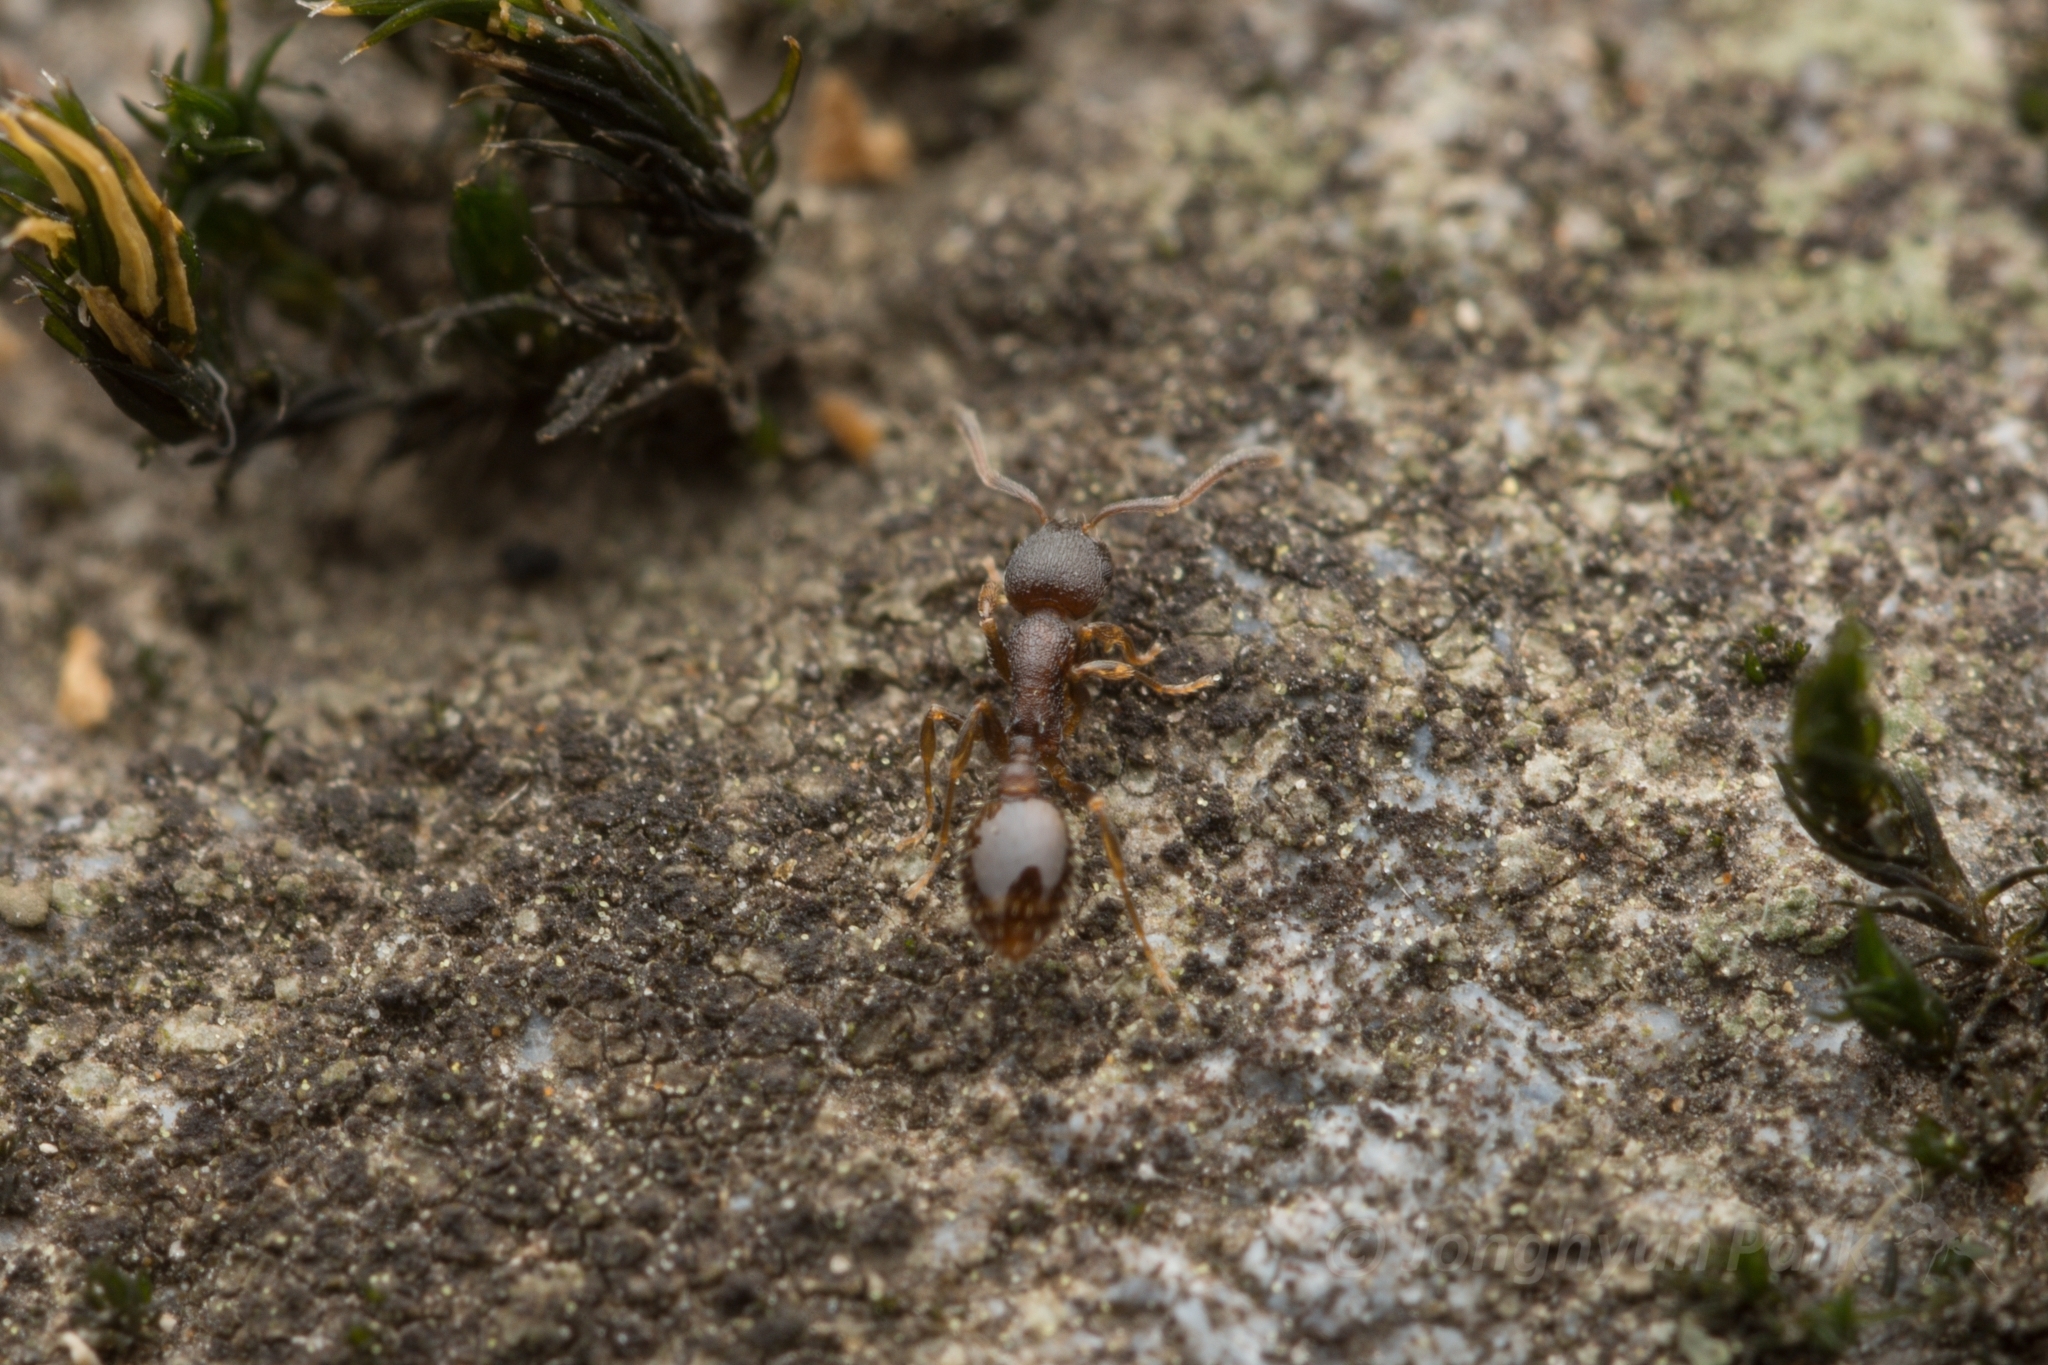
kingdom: Animalia
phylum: Arthropoda
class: Insecta
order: Hymenoptera
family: Formicidae
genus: Temnothorax
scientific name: Temnothorax
